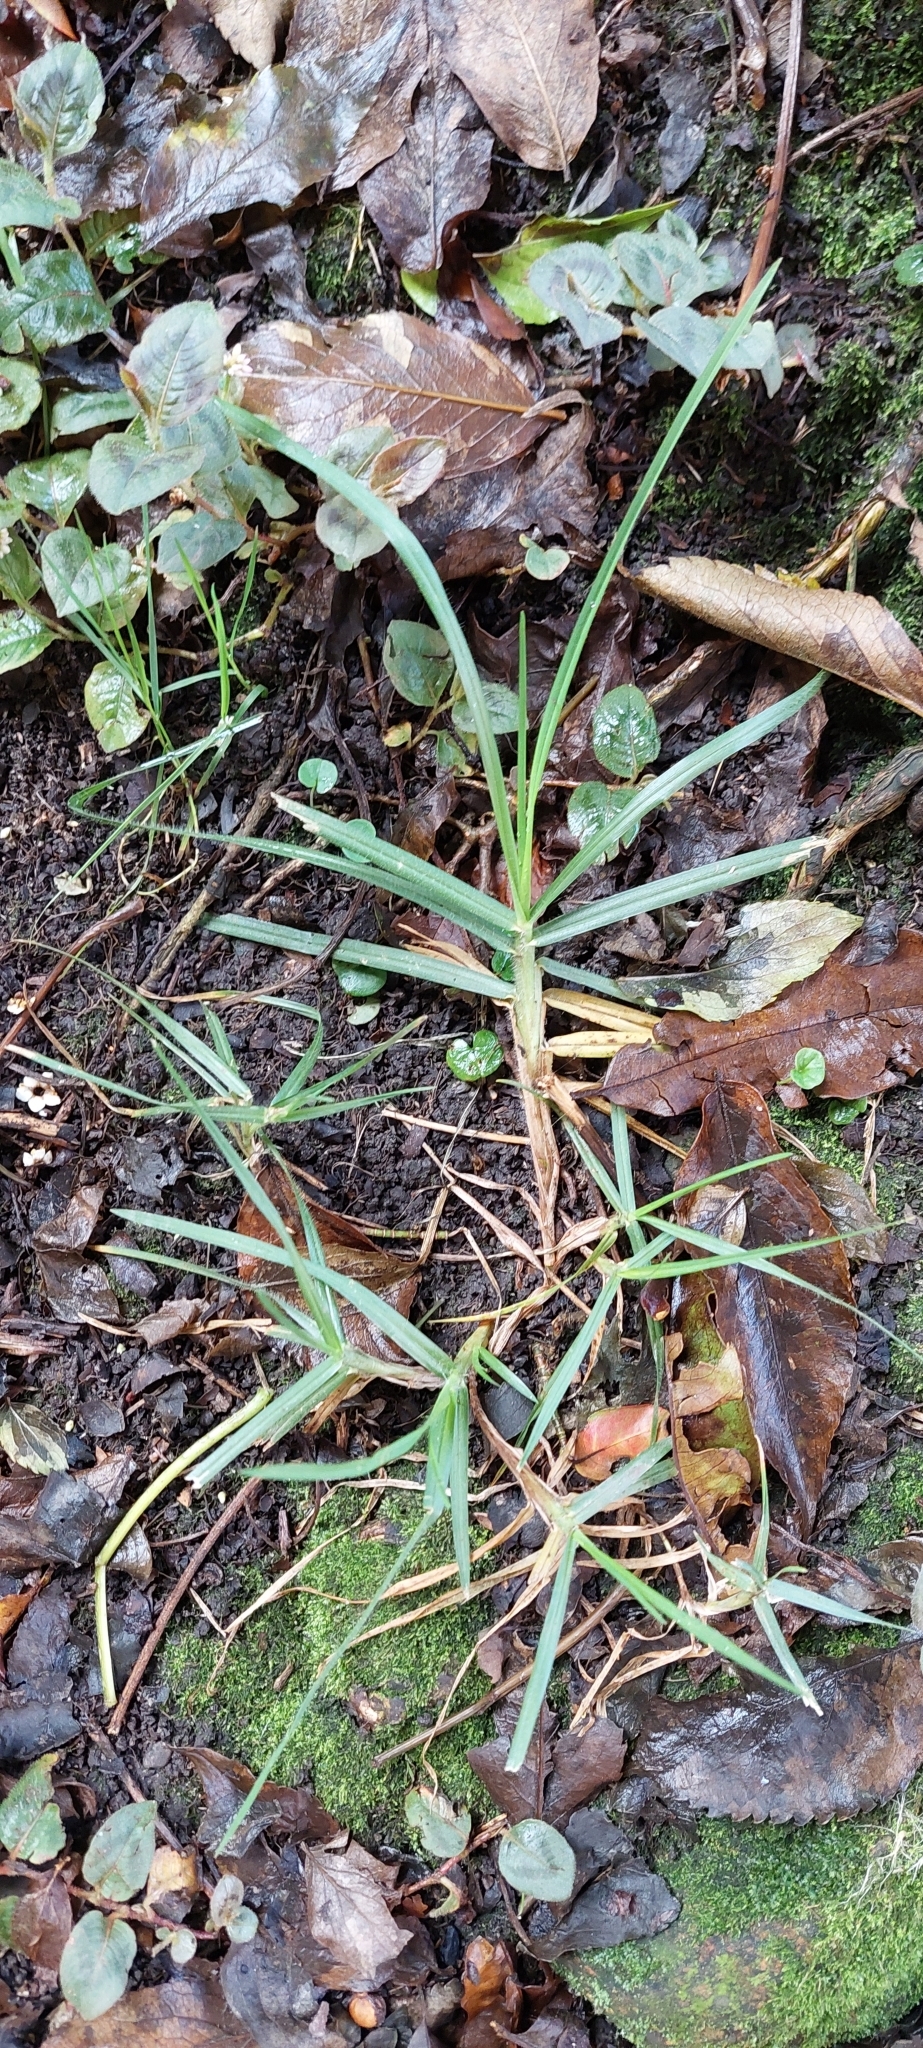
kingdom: Plantae
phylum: Tracheophyta
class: Liliopsida
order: Poales
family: Poaceae
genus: Cenchrus
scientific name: Cenchrus clandestinus
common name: Kikuyugrass
